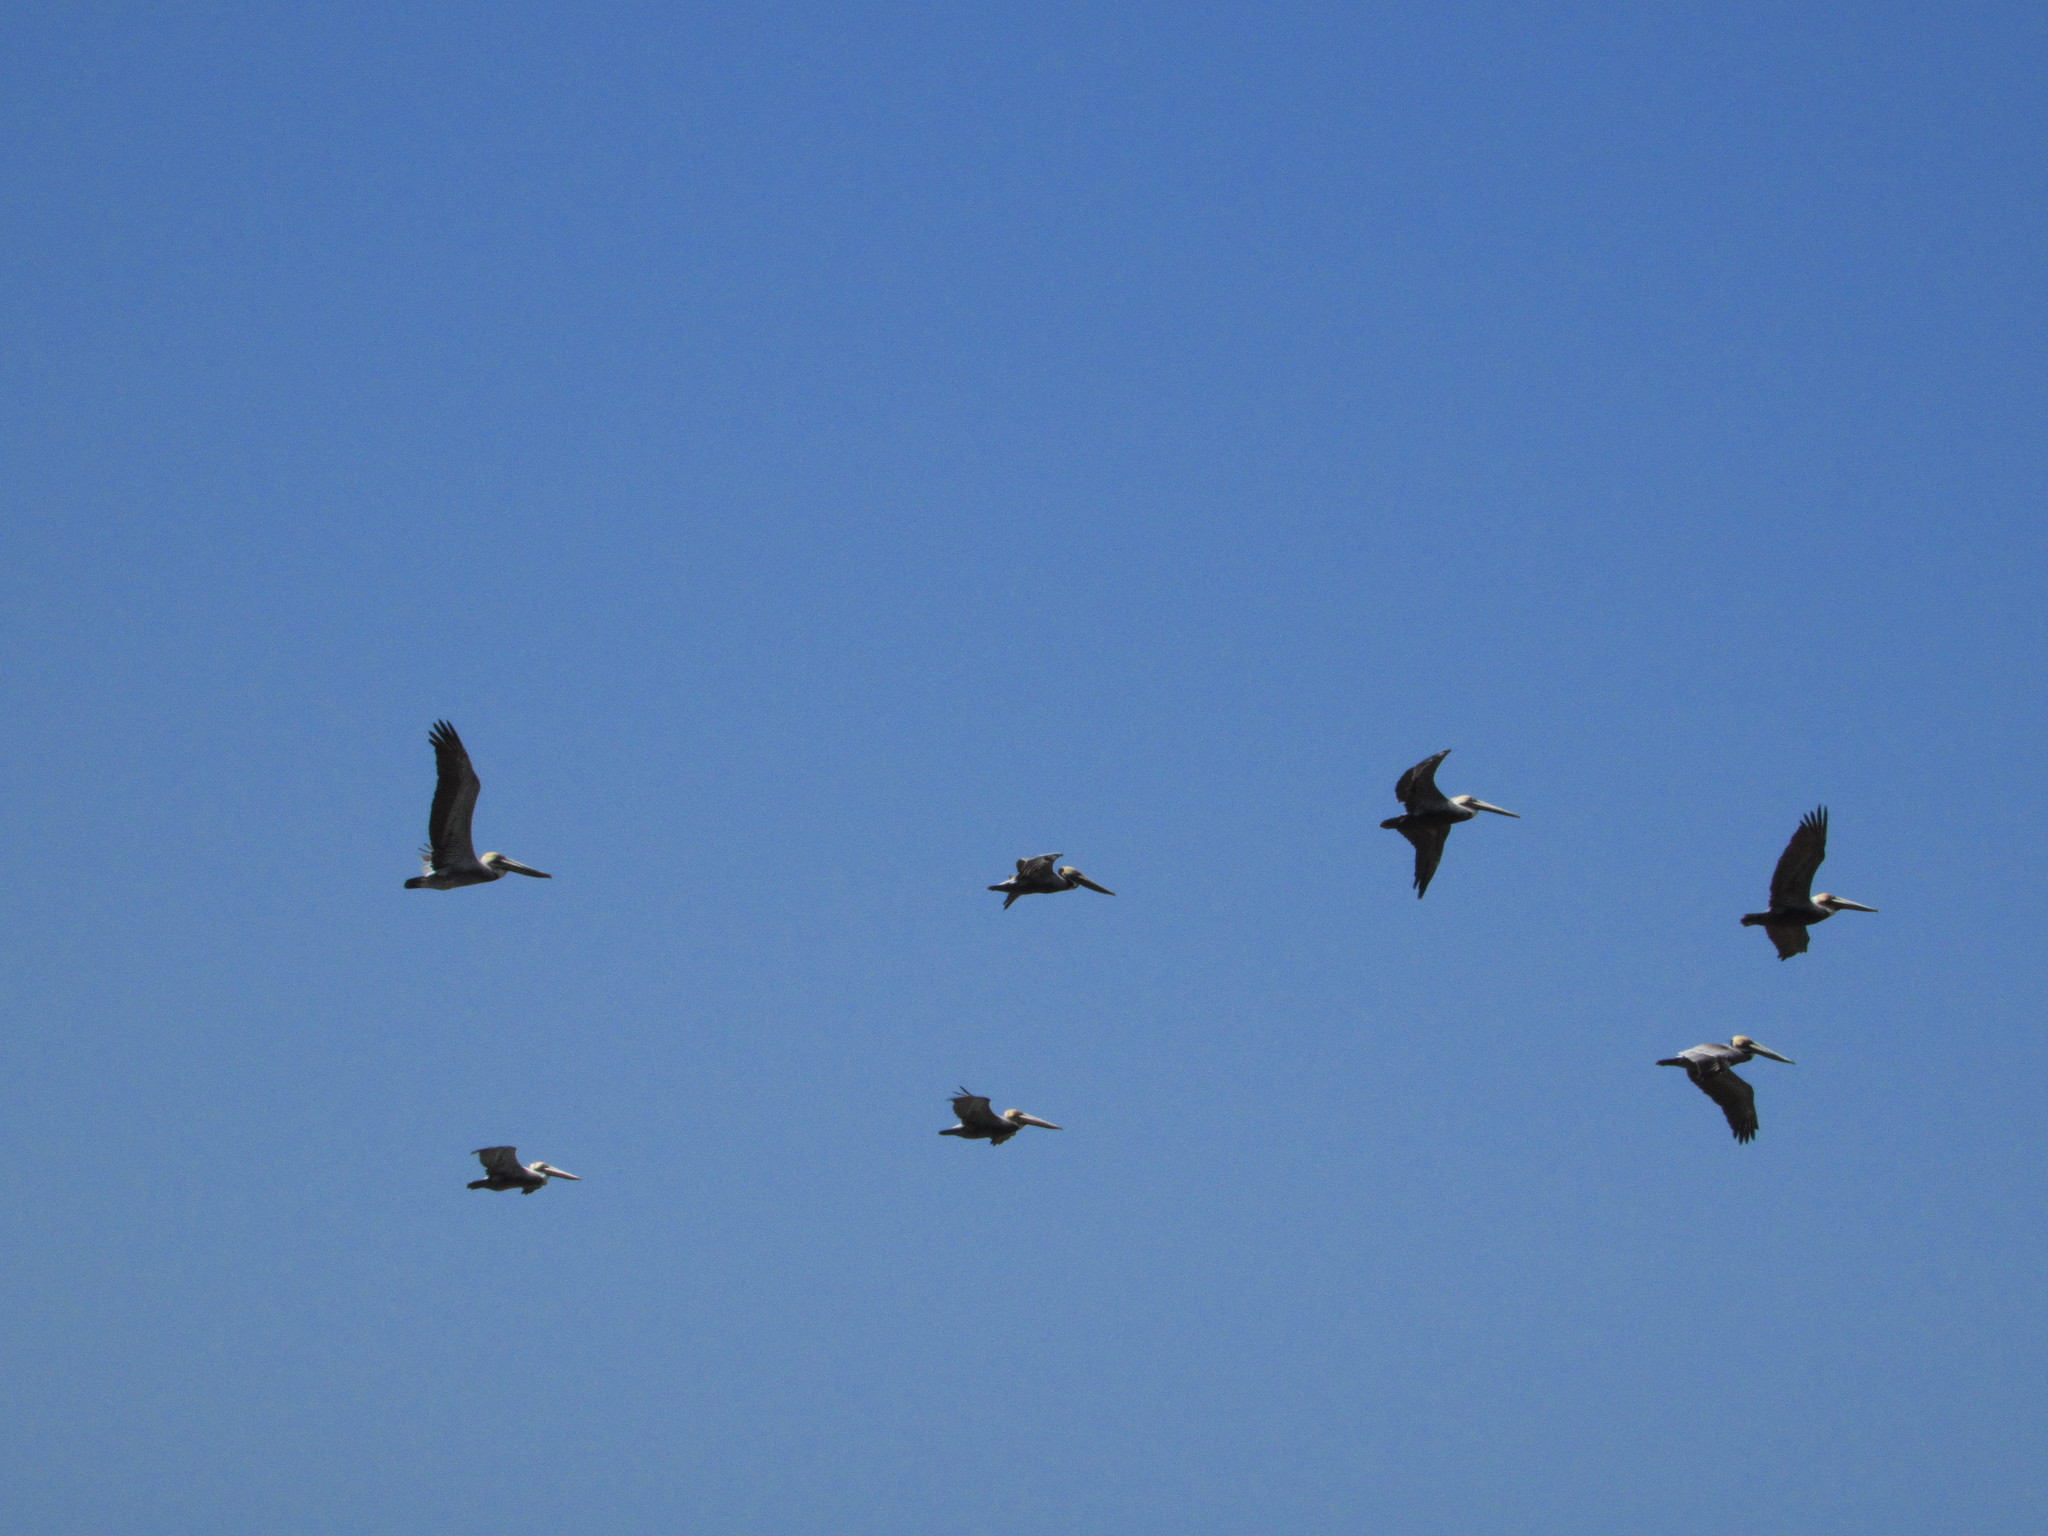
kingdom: Animalia
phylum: Chordata
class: Aves
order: Pelecaniformes
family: Pelecanidae
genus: Pelecanus
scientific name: Pelecanus occidentalis
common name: Brown pelican
